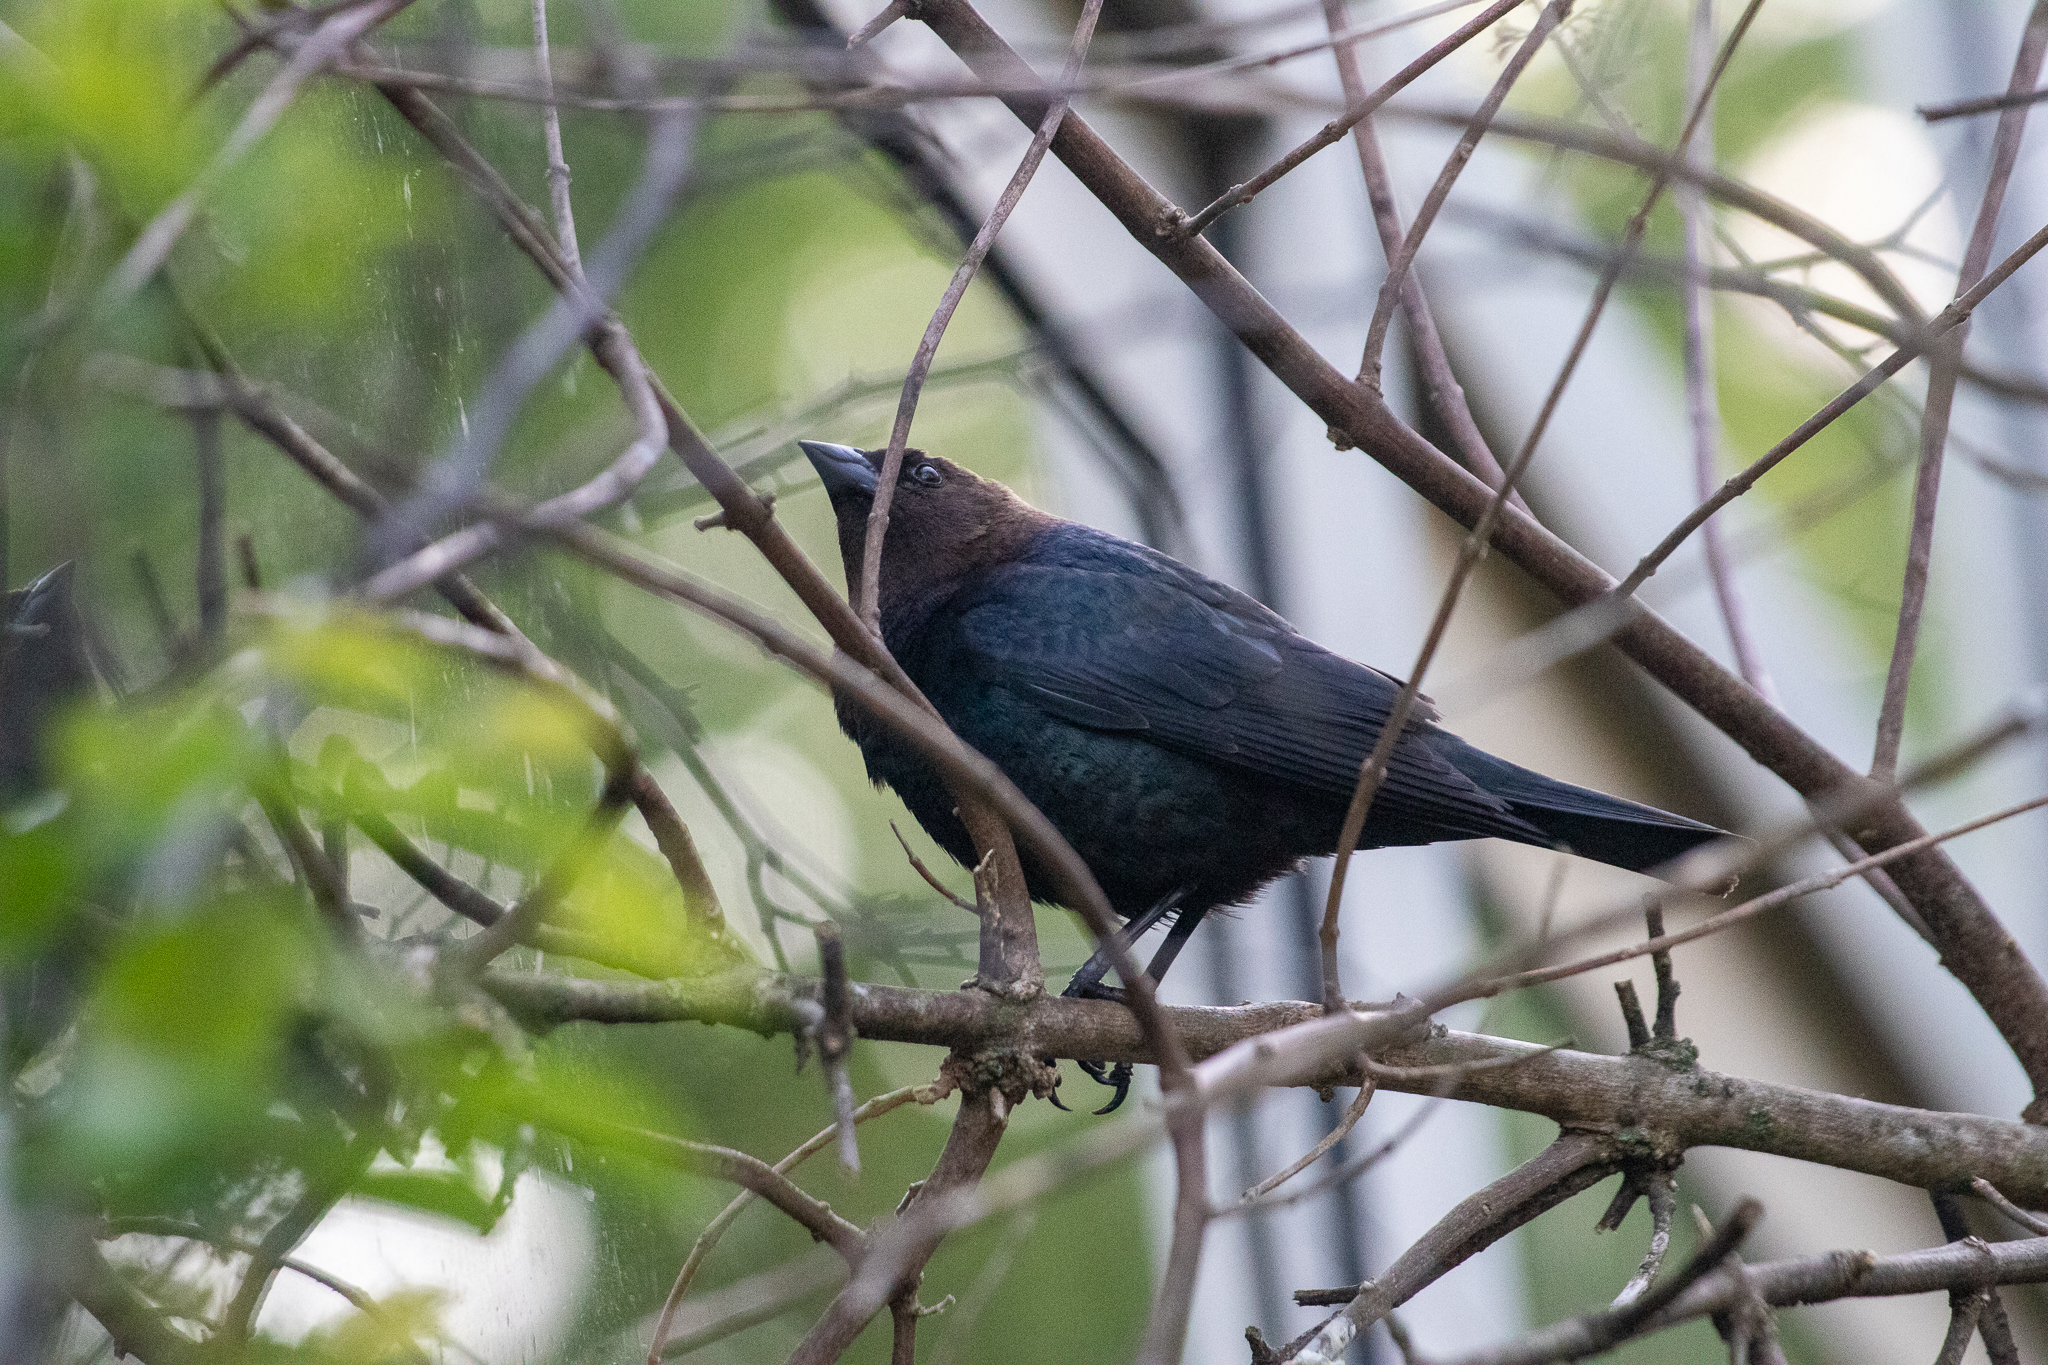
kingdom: Animalia
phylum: Chordata
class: Aves
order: Passeriformes
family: Icteridae
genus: Molothrus
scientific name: Molothrus ater
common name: Brown-headed cowbird
